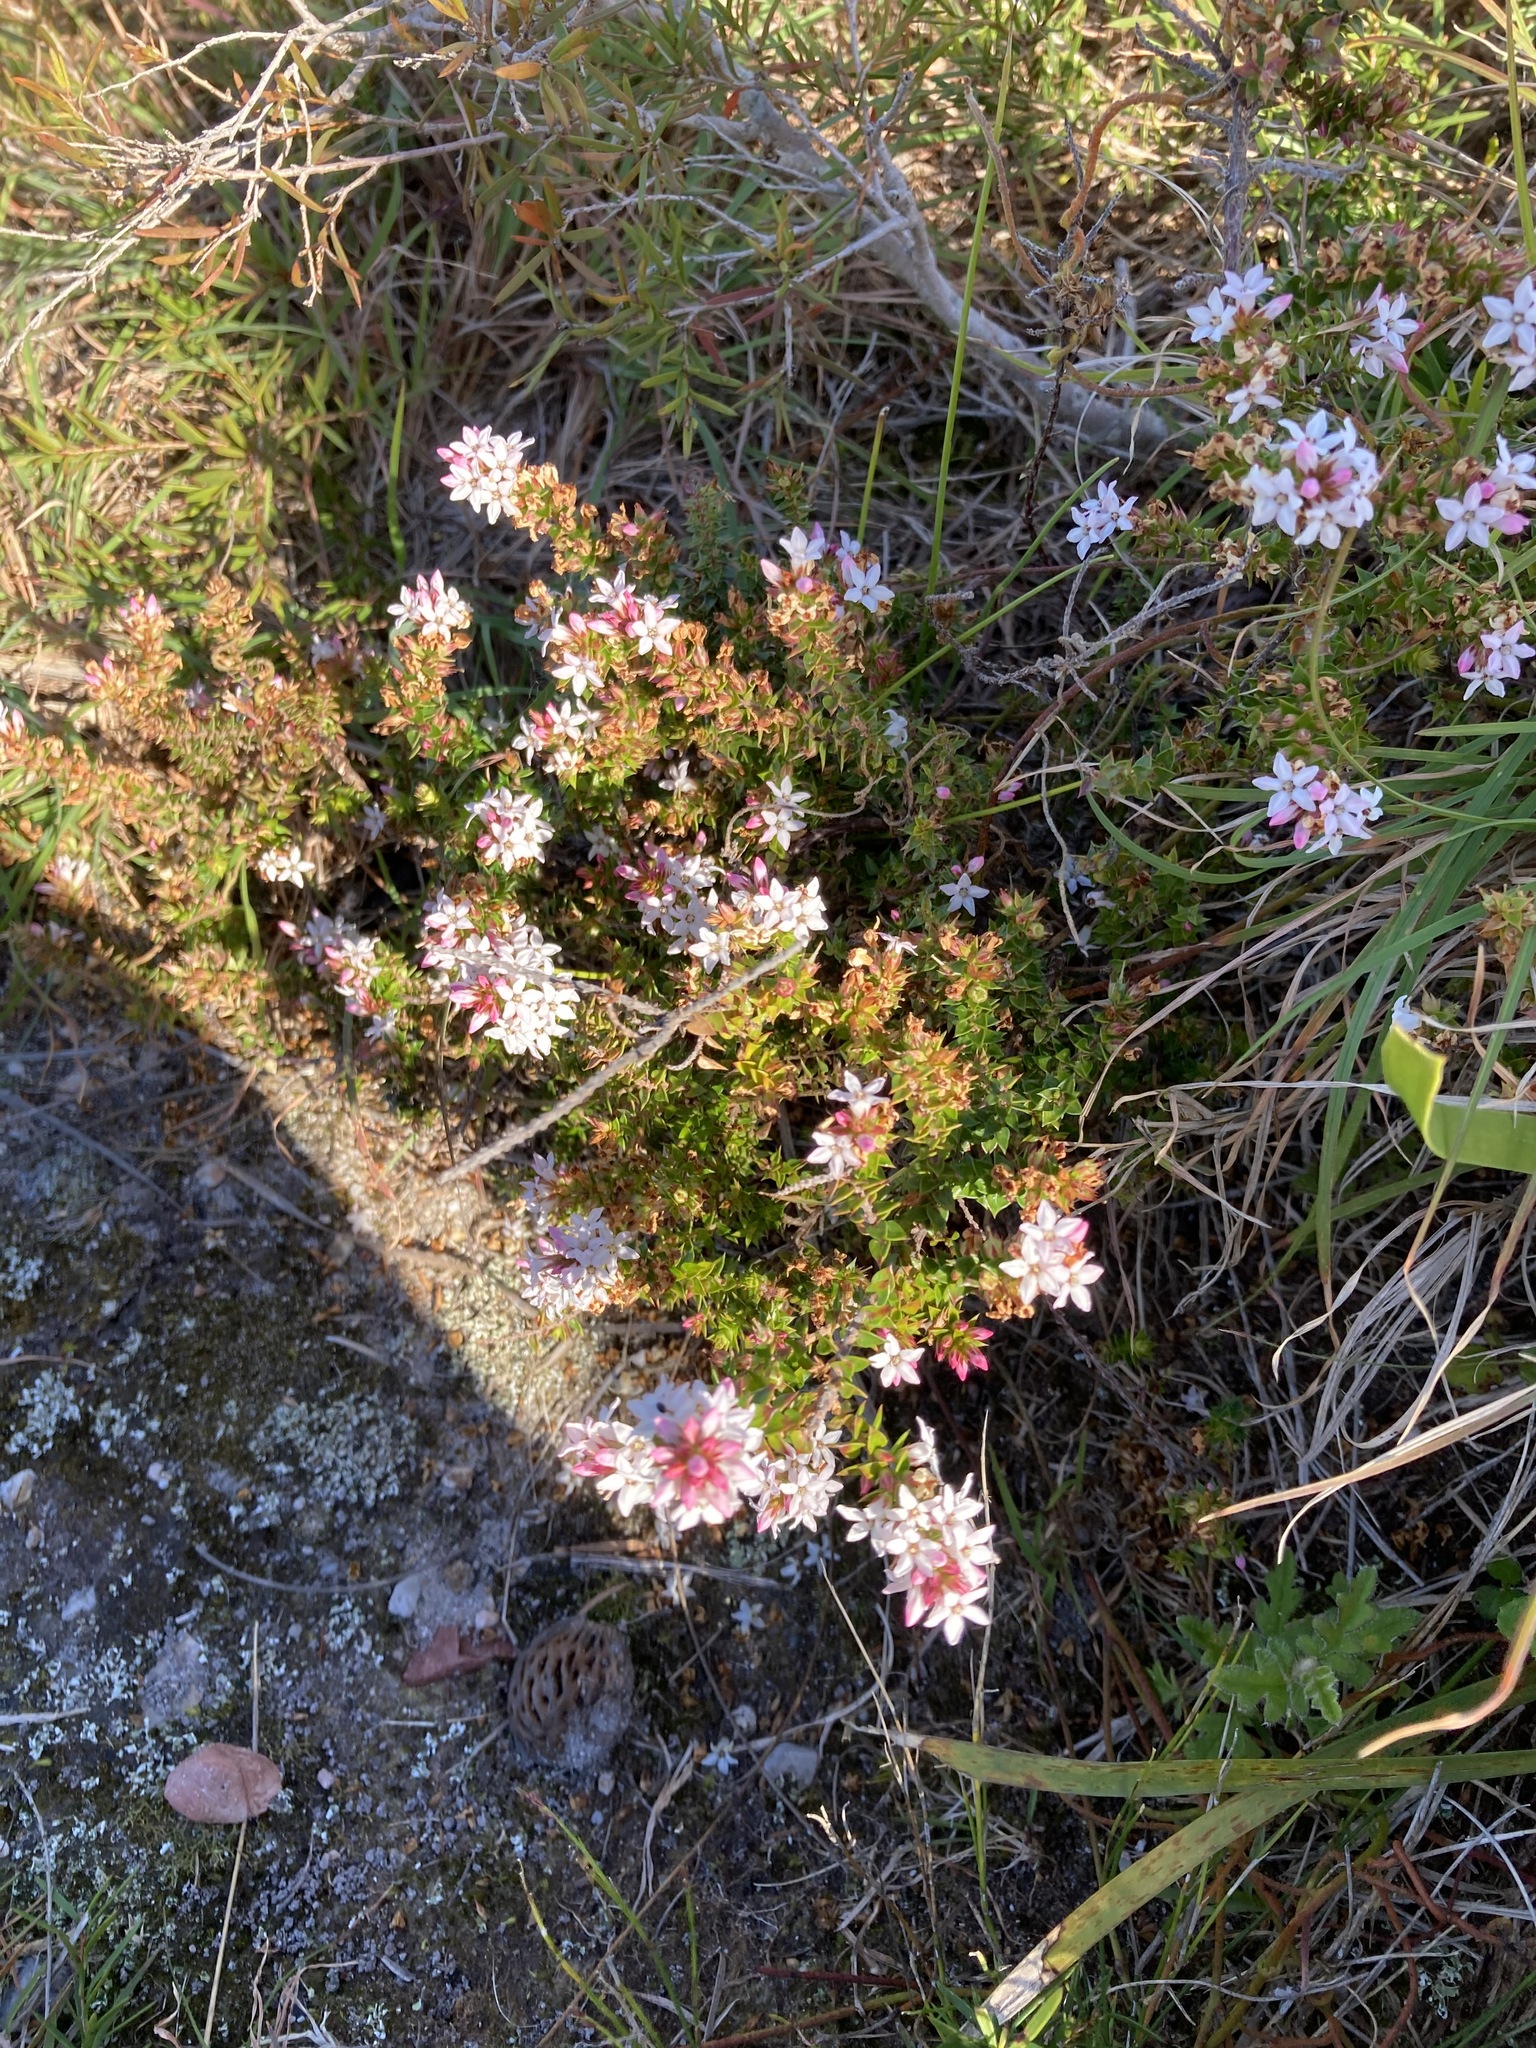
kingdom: Plantae
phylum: Tracheophyta
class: Magnoliopsida
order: Ericales
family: Ericaceae
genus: Epacris
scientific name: Epacris pulchella
